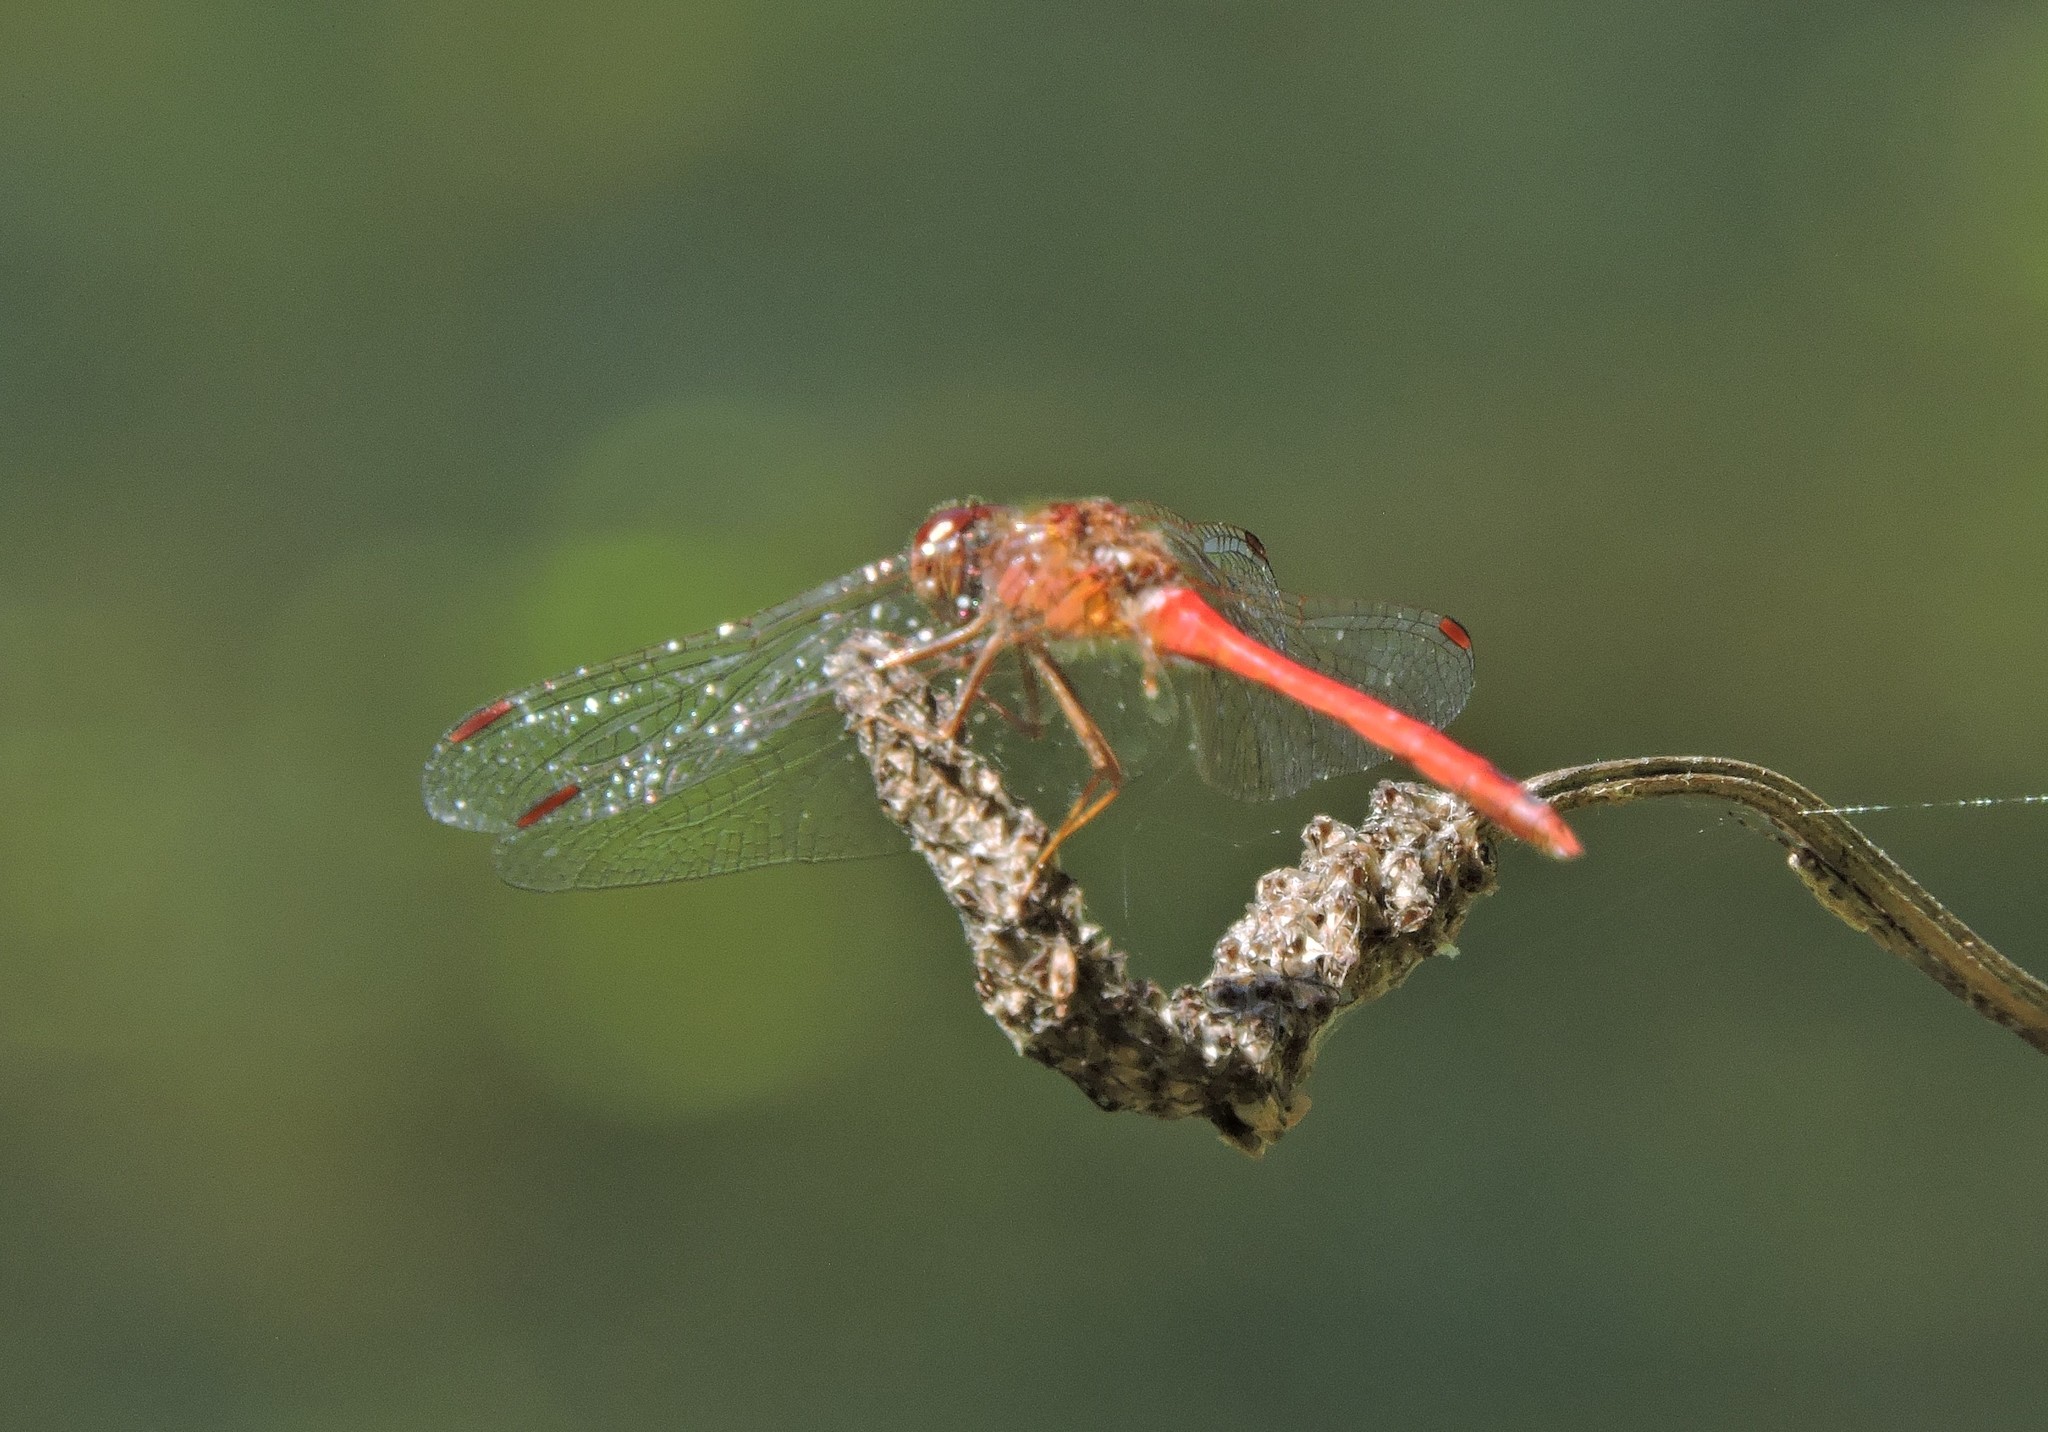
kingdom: Animalia
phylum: Arthropoda
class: Insecta
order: Odonata
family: Libellulidae
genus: Sympetrum
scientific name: Sympetrum vicinum
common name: Autumn meadowhawk
